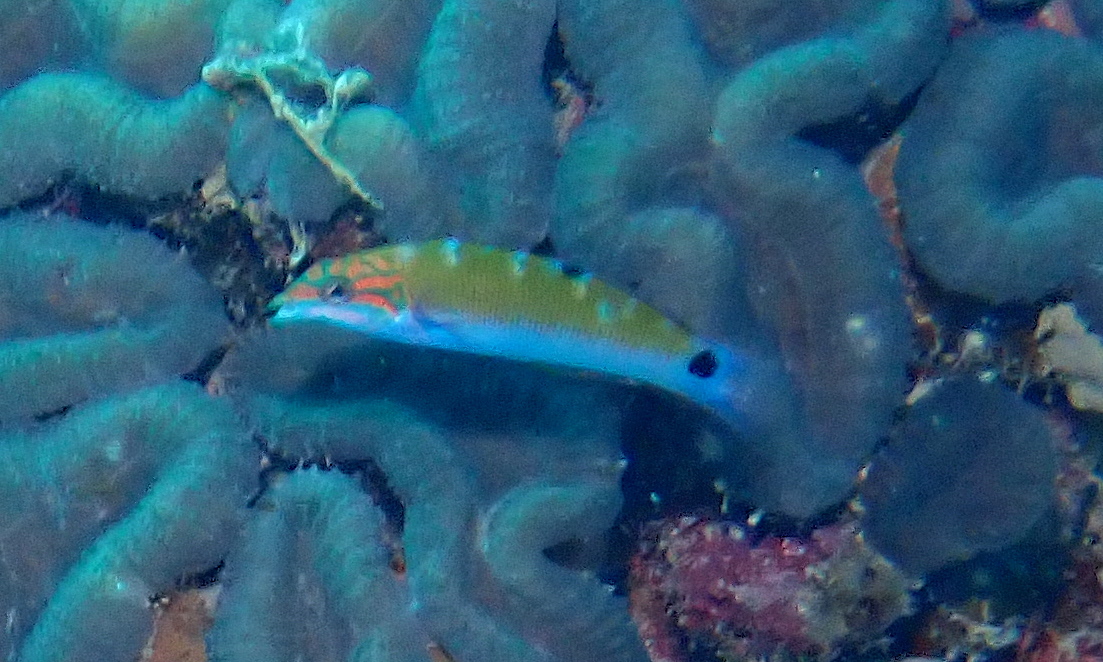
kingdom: Animalia
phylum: Chordata
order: Perciformes
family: Labridae
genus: Thalassoma
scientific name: Thalassoma lunare
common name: Blue wrasse
